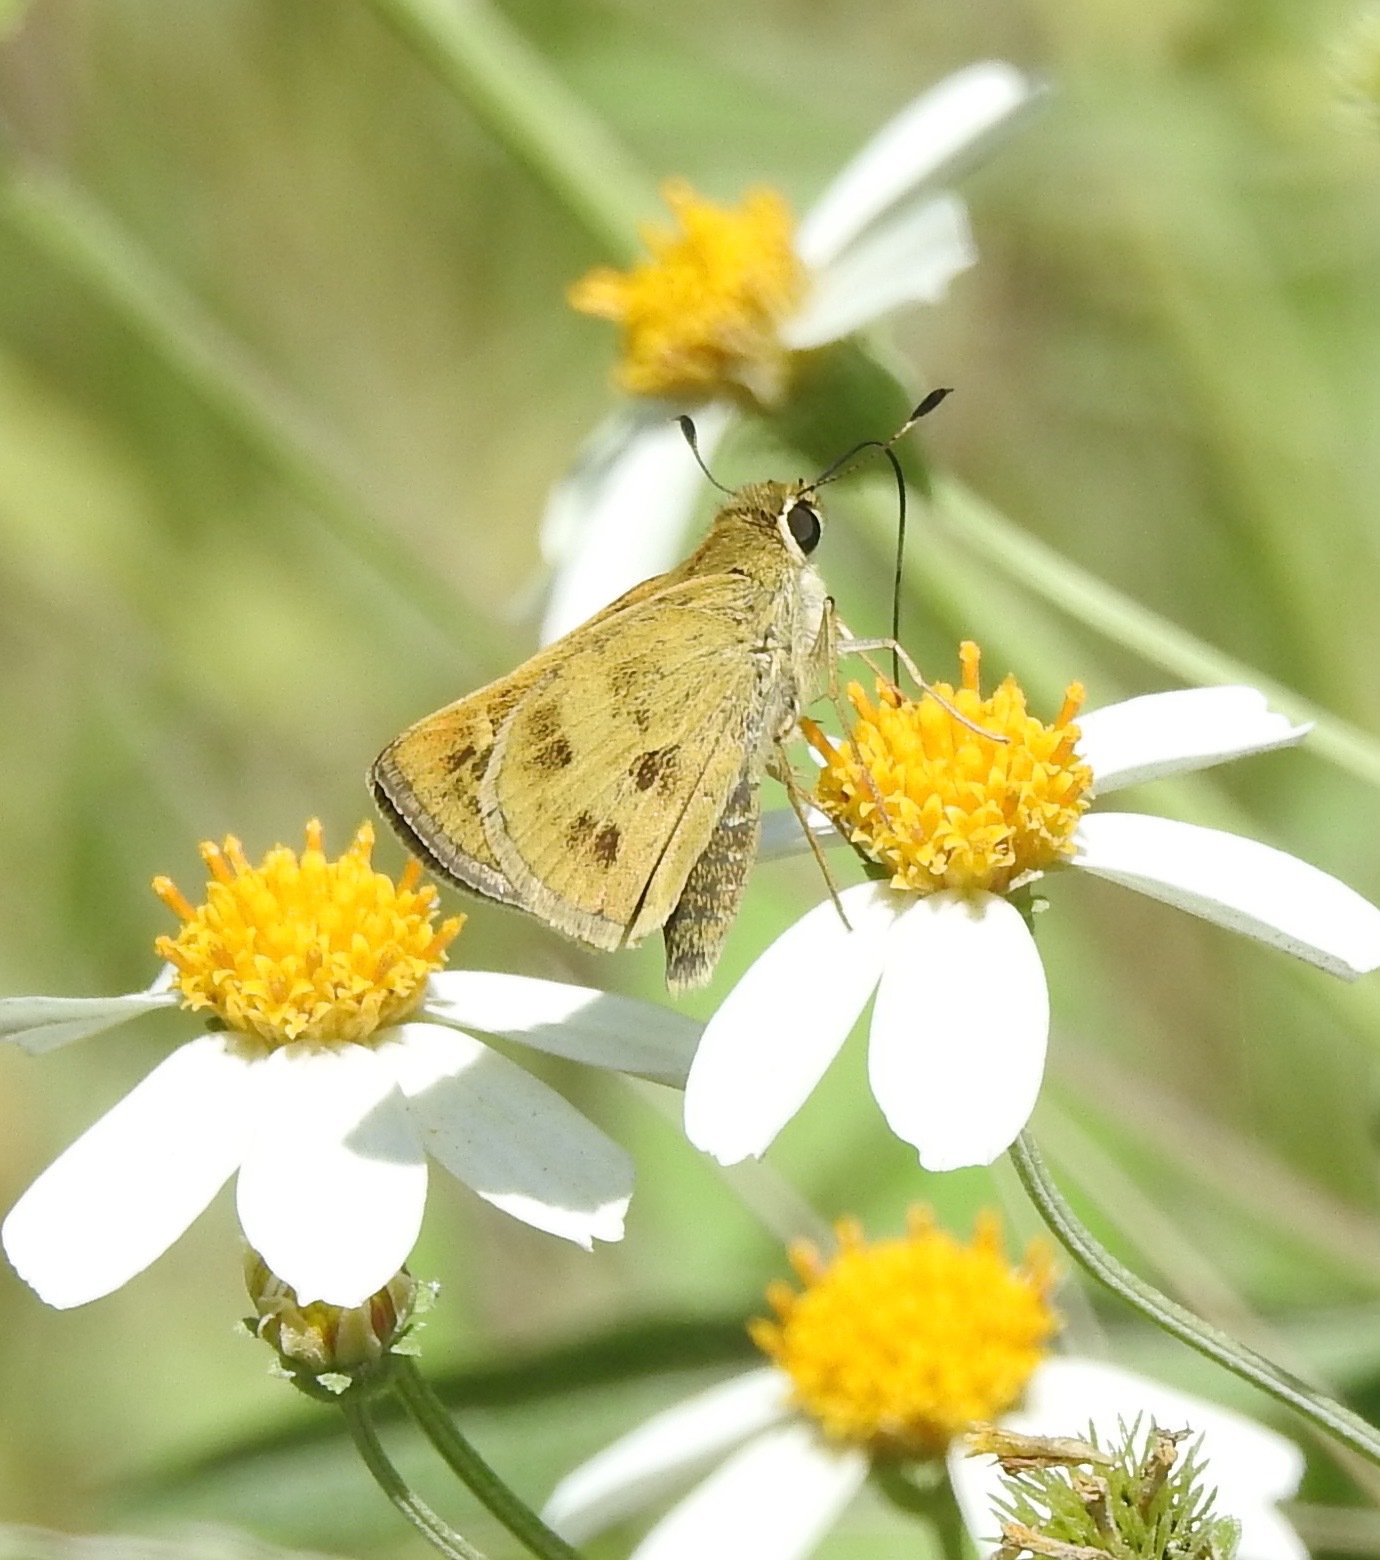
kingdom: Animalia
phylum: Arthropoda
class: Insecta
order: Lepidoptera
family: Hesperiidae
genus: Polites
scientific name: Polites vibex
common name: Whirlabout
